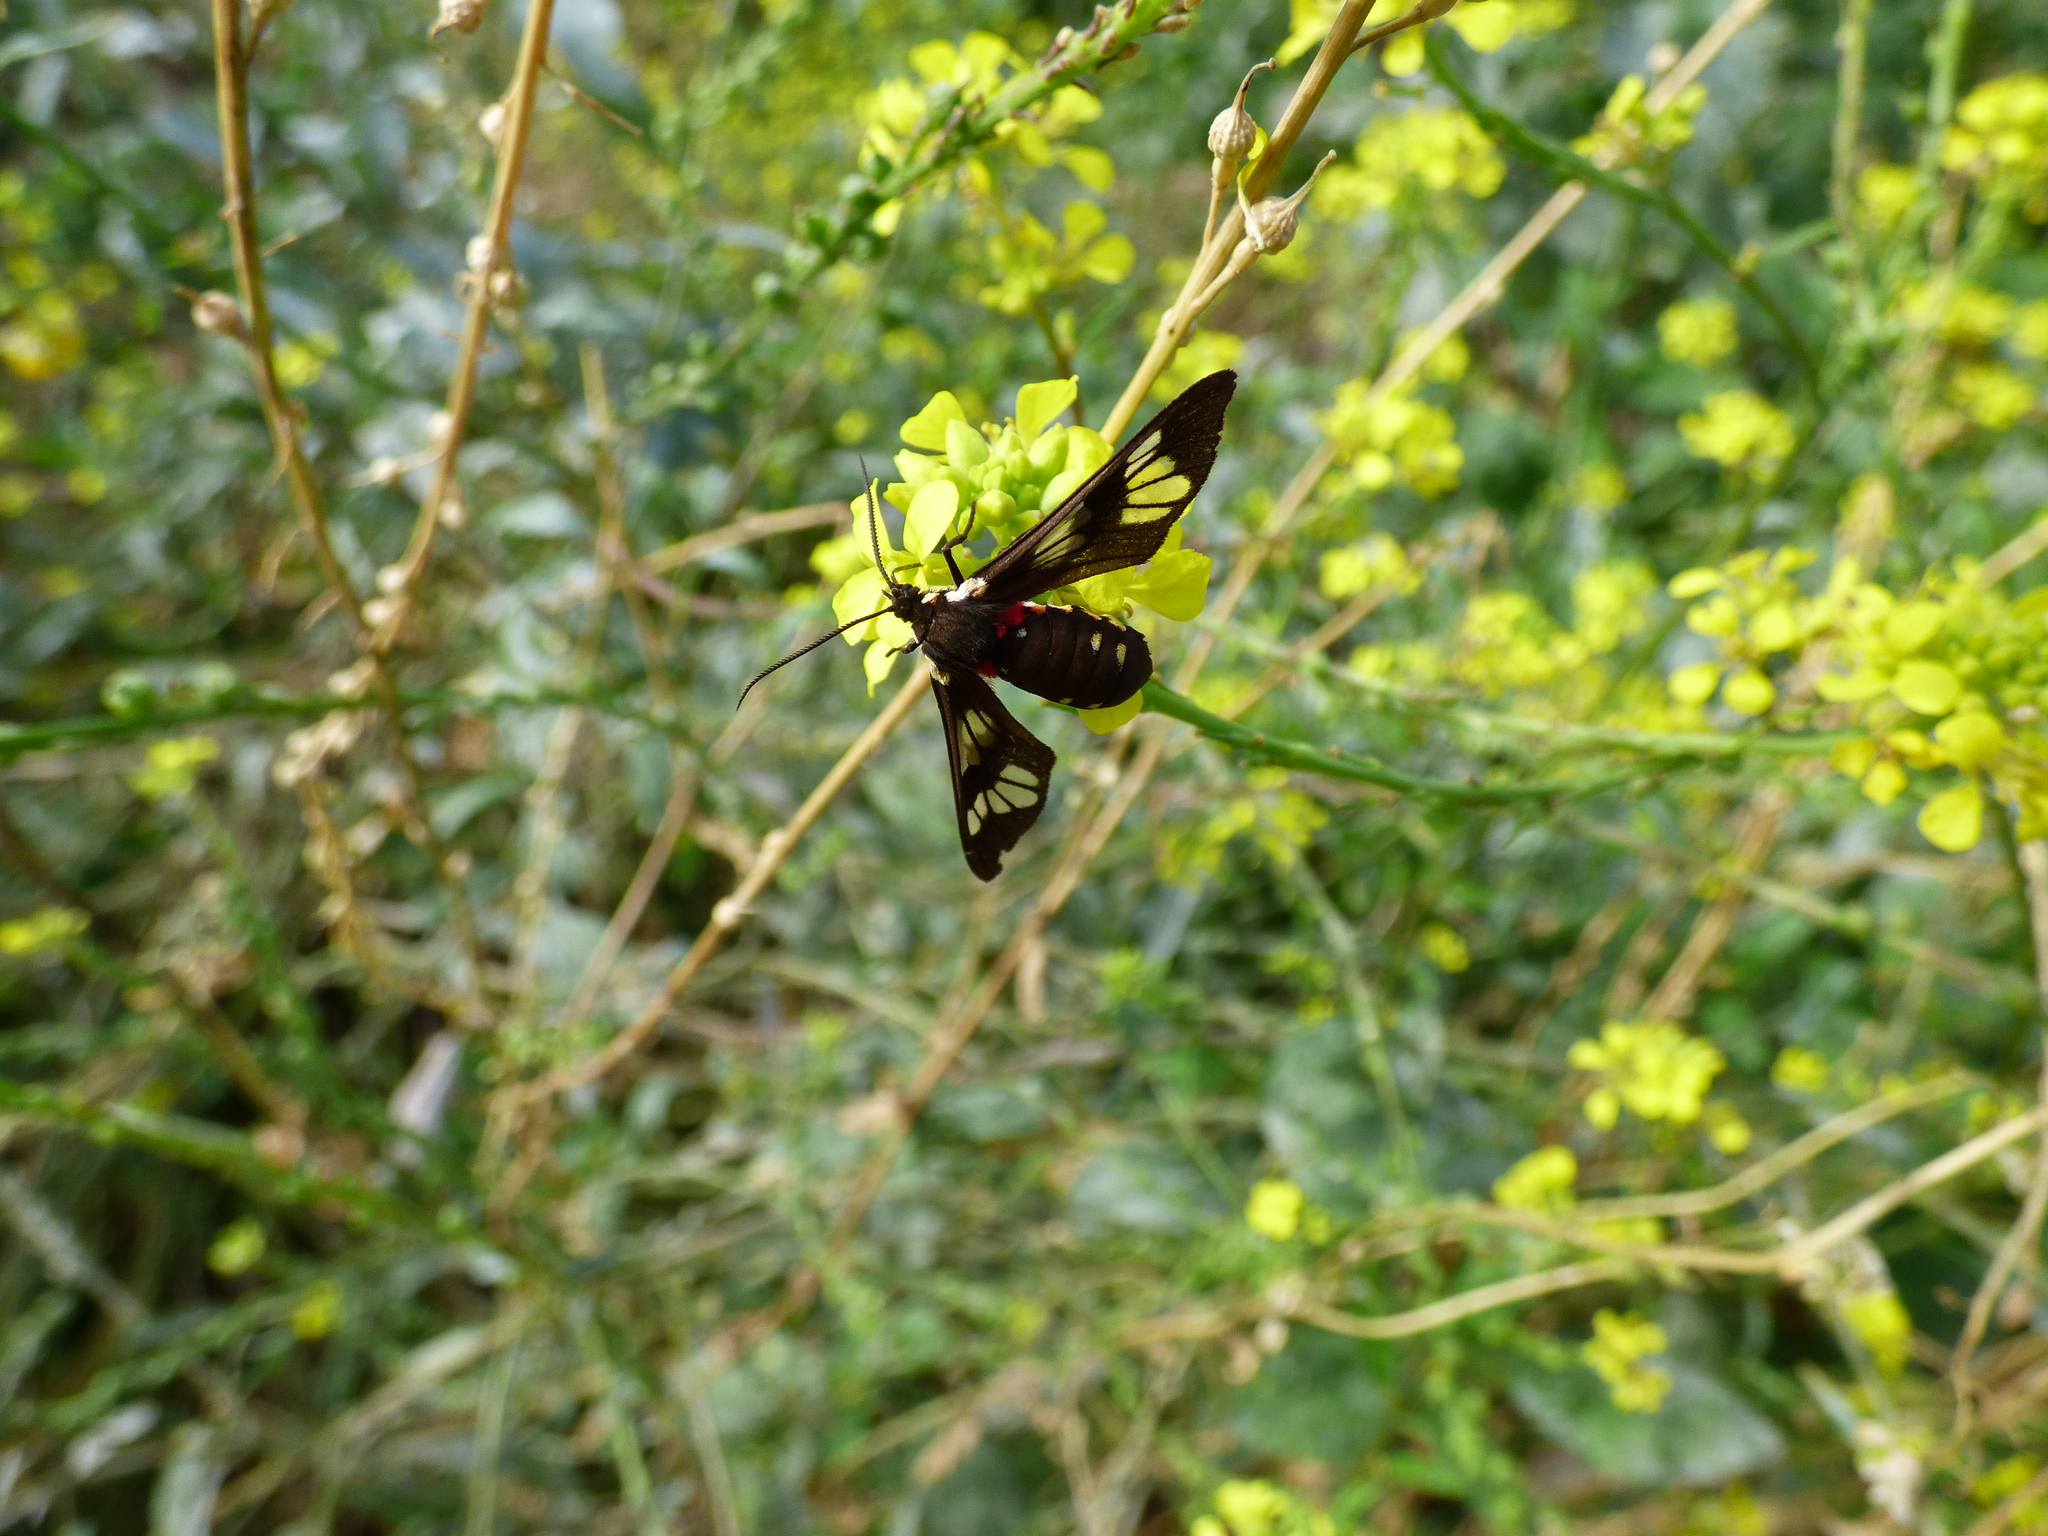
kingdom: Animalia
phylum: Arthropoda
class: Insecta
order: Lepidoptera
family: Erebidae
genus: Eurata
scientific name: Eurata hermione
